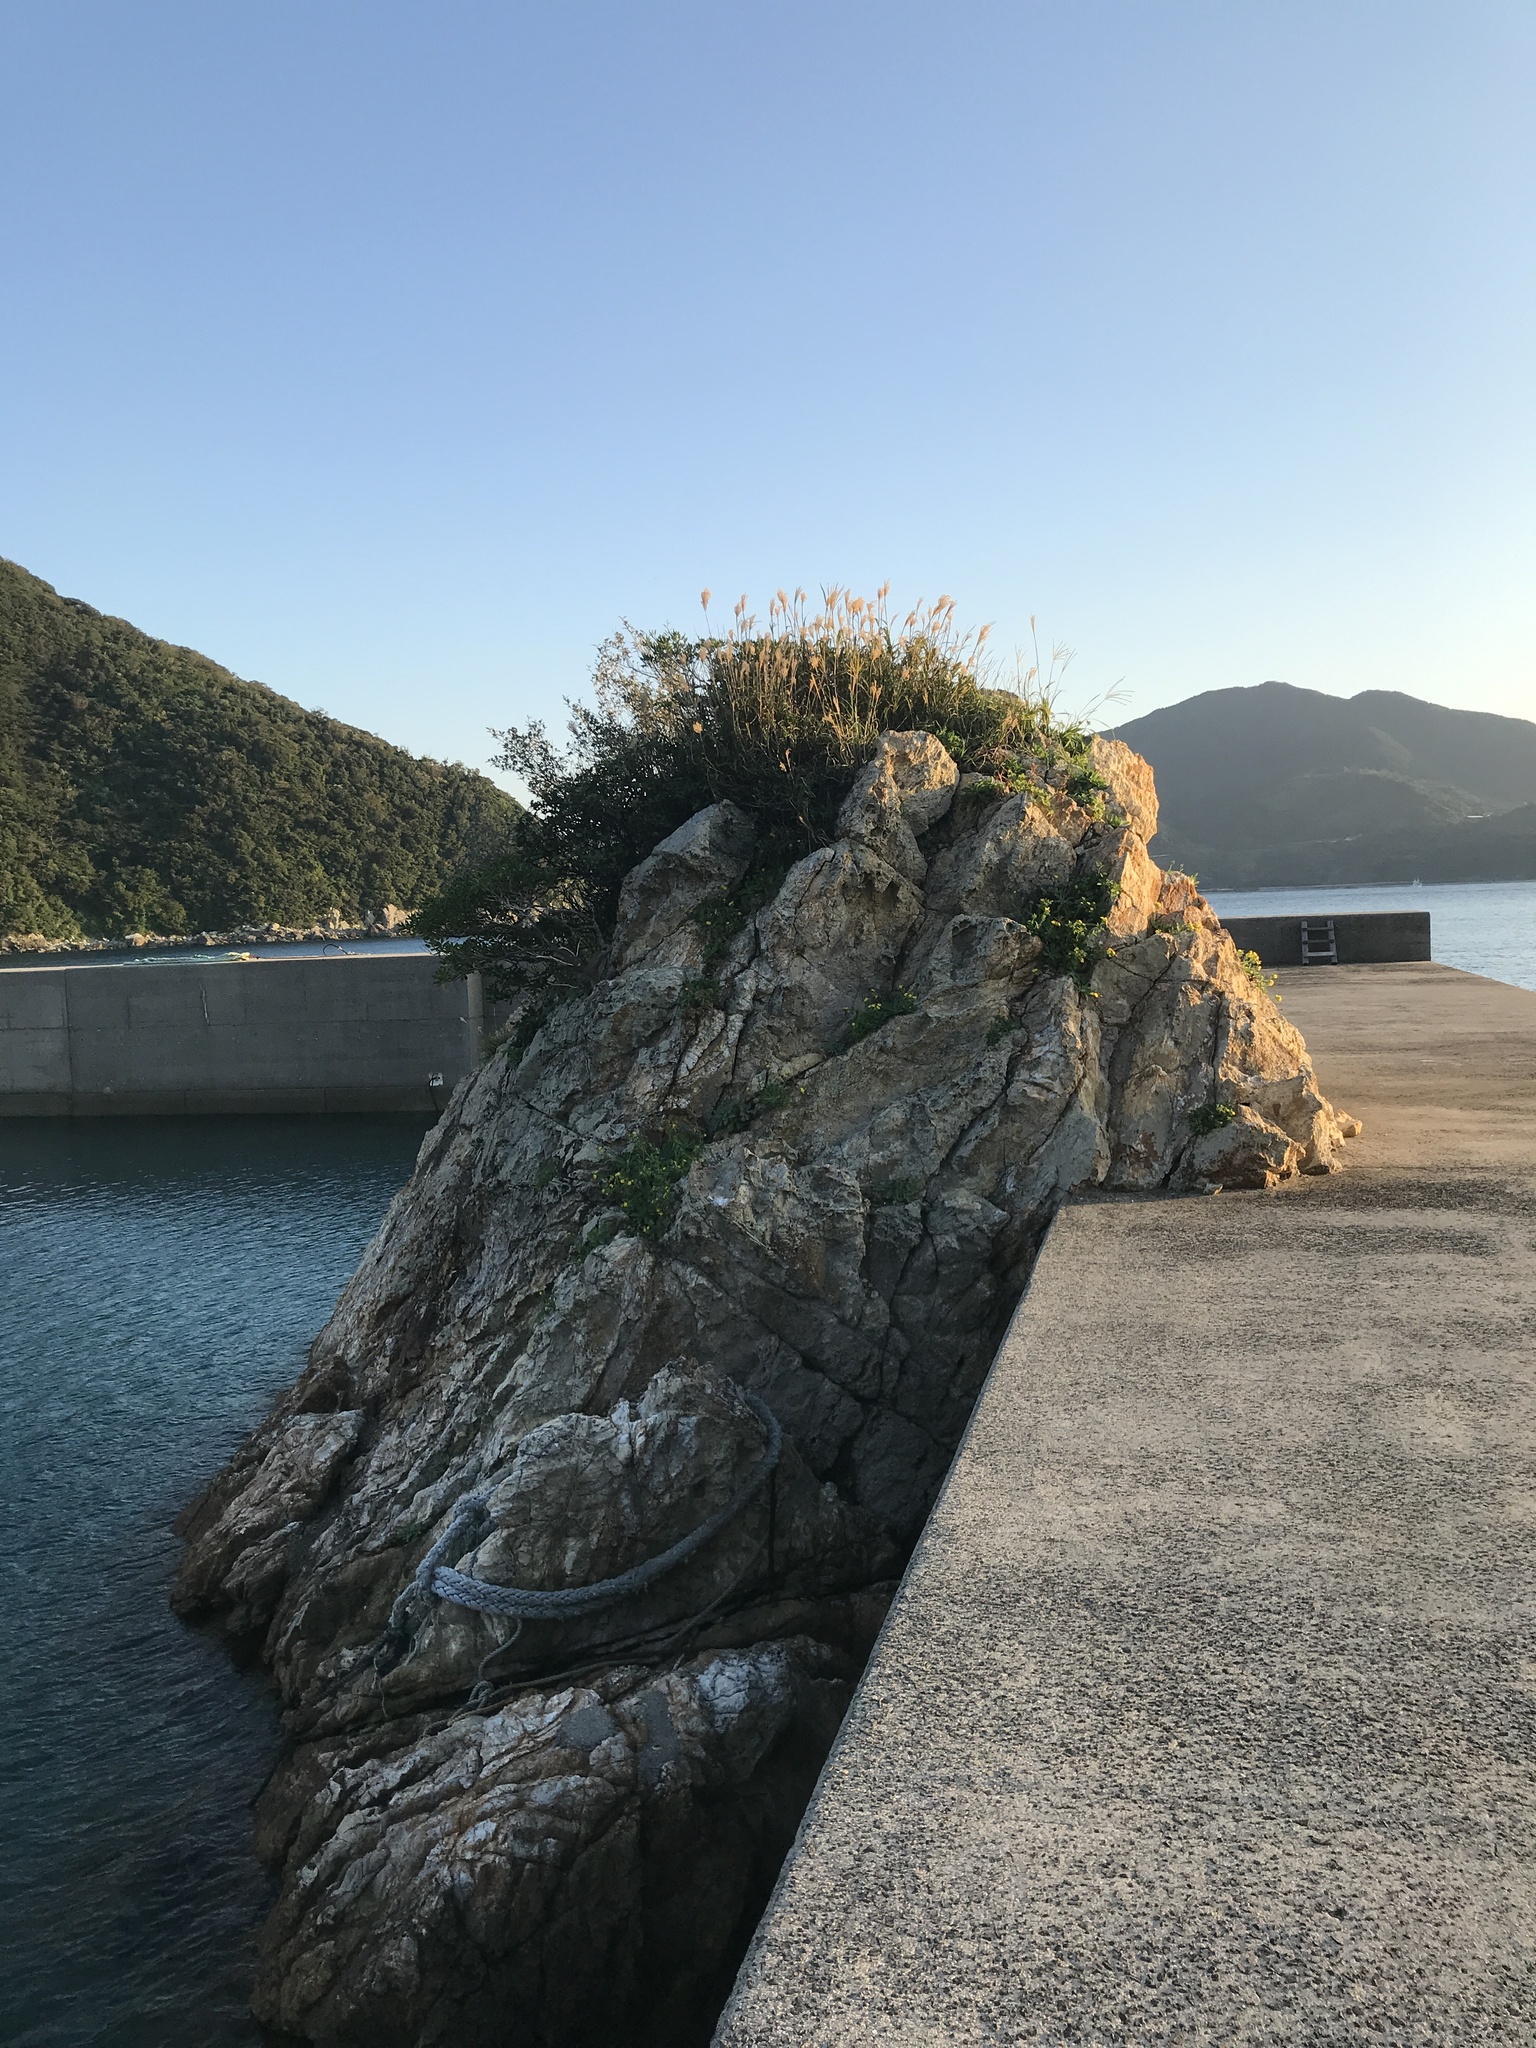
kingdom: Plantae
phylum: Tracheophyta
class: Liliopsida
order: Poales
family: Poaceae
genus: Miscanthus
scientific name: Miscanthus sinensis
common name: Chinese silvergrass
